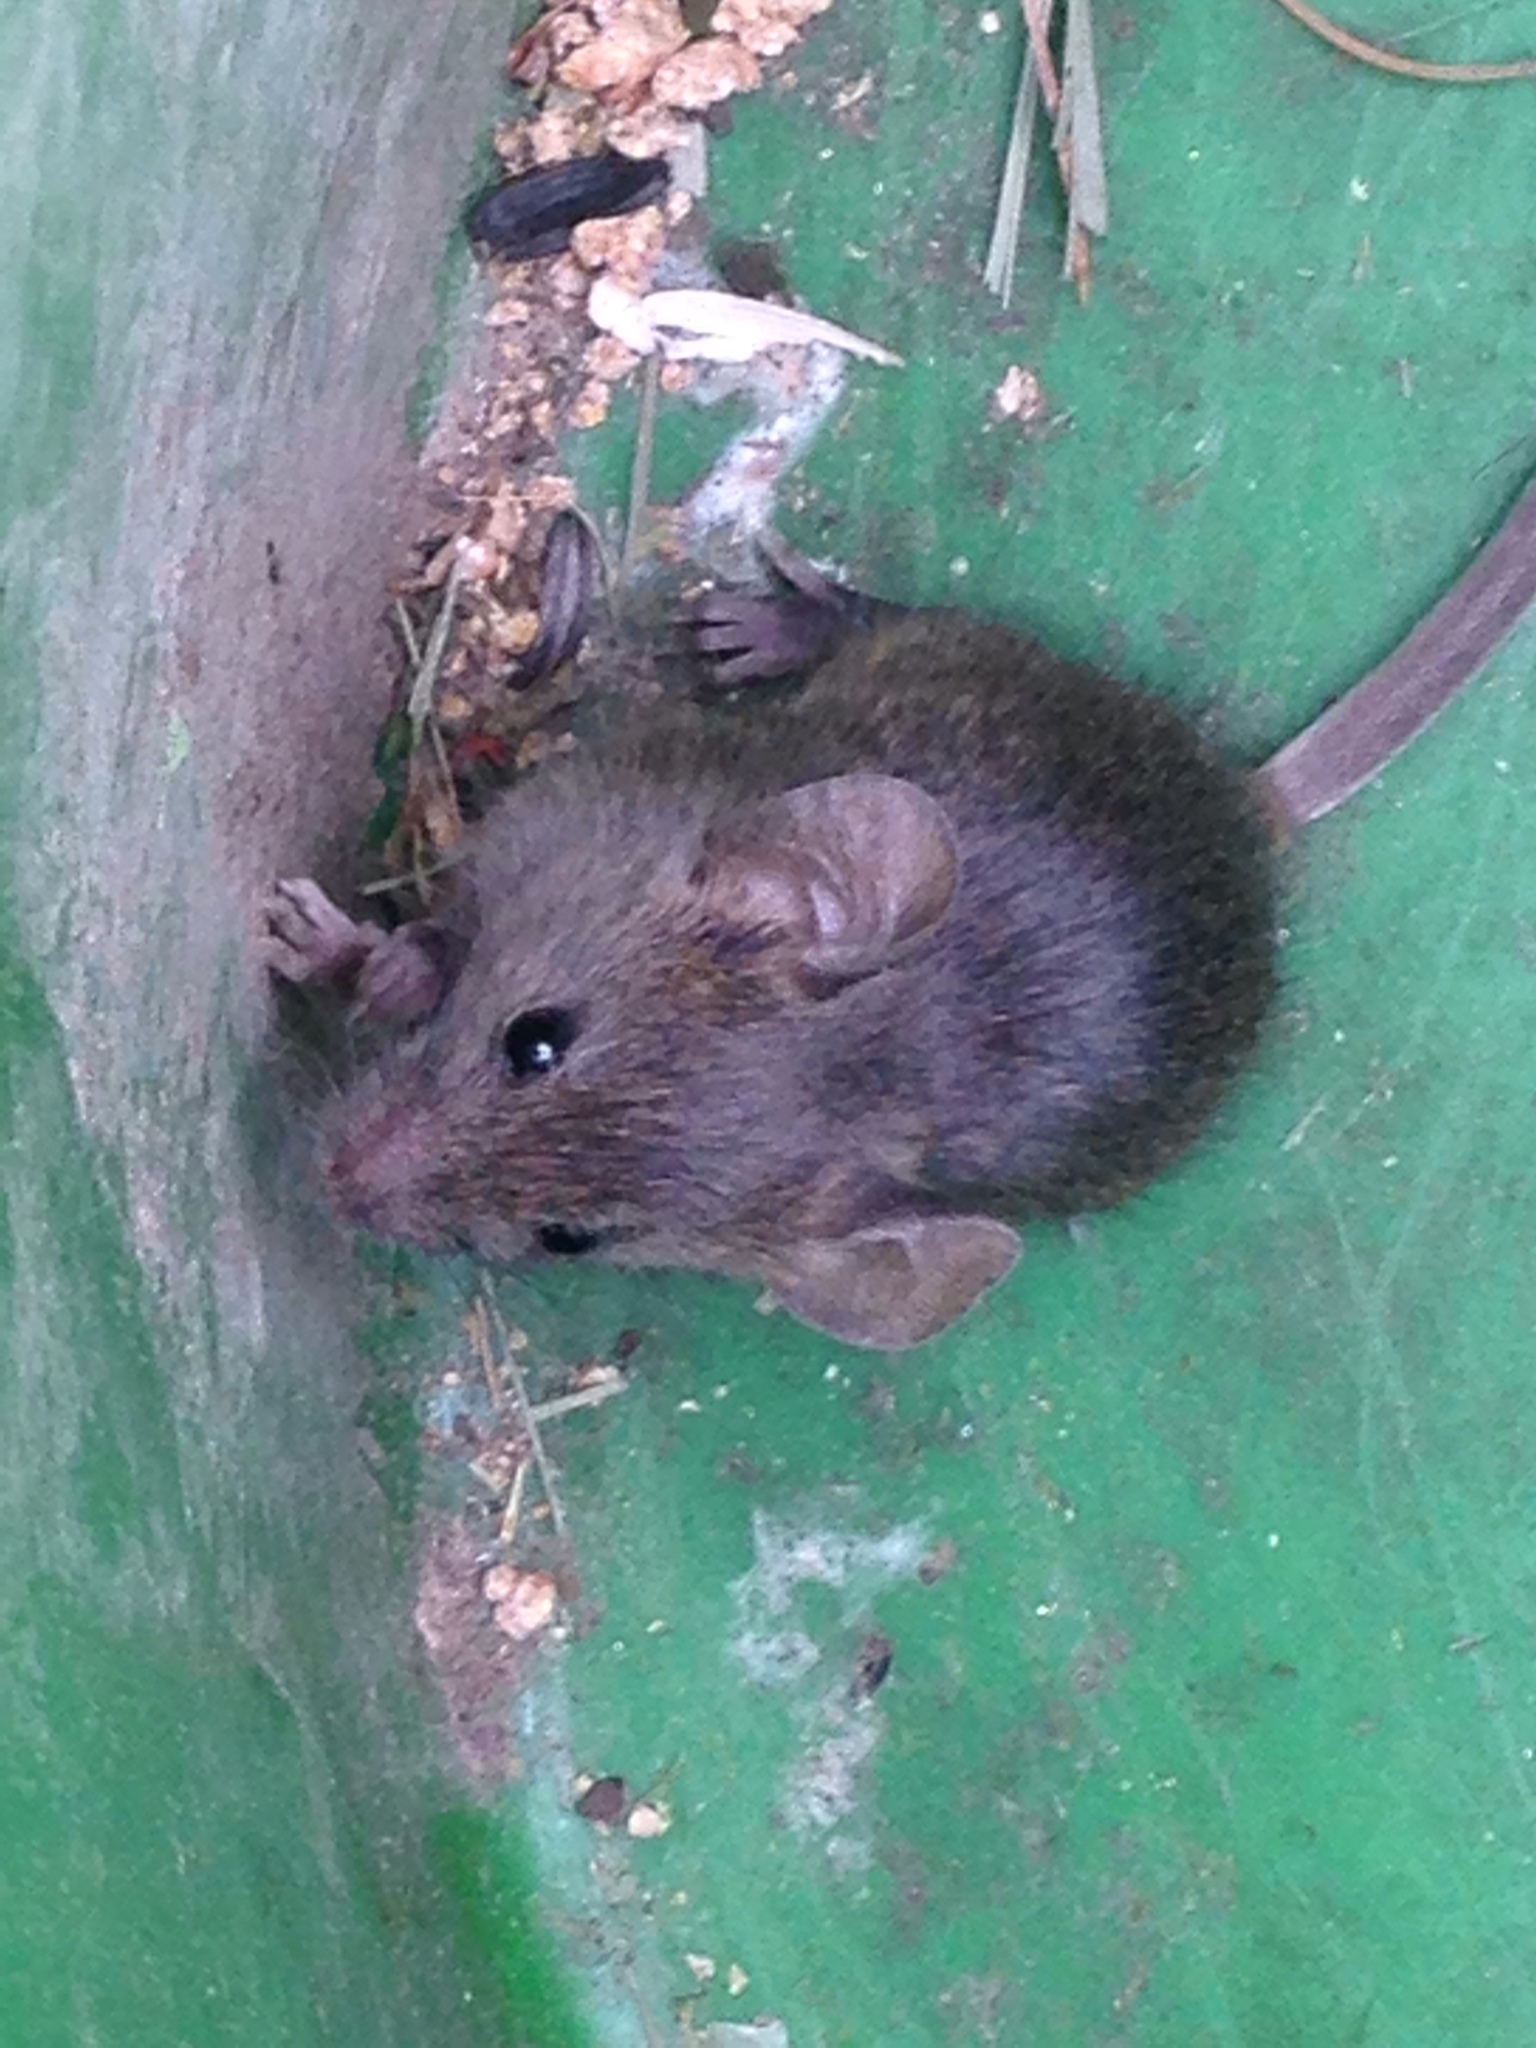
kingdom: Animalia
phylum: Chordata
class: Mammalia
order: Rodentia
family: Muridae
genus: Mus
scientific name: Mus musculus
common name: House mouse
